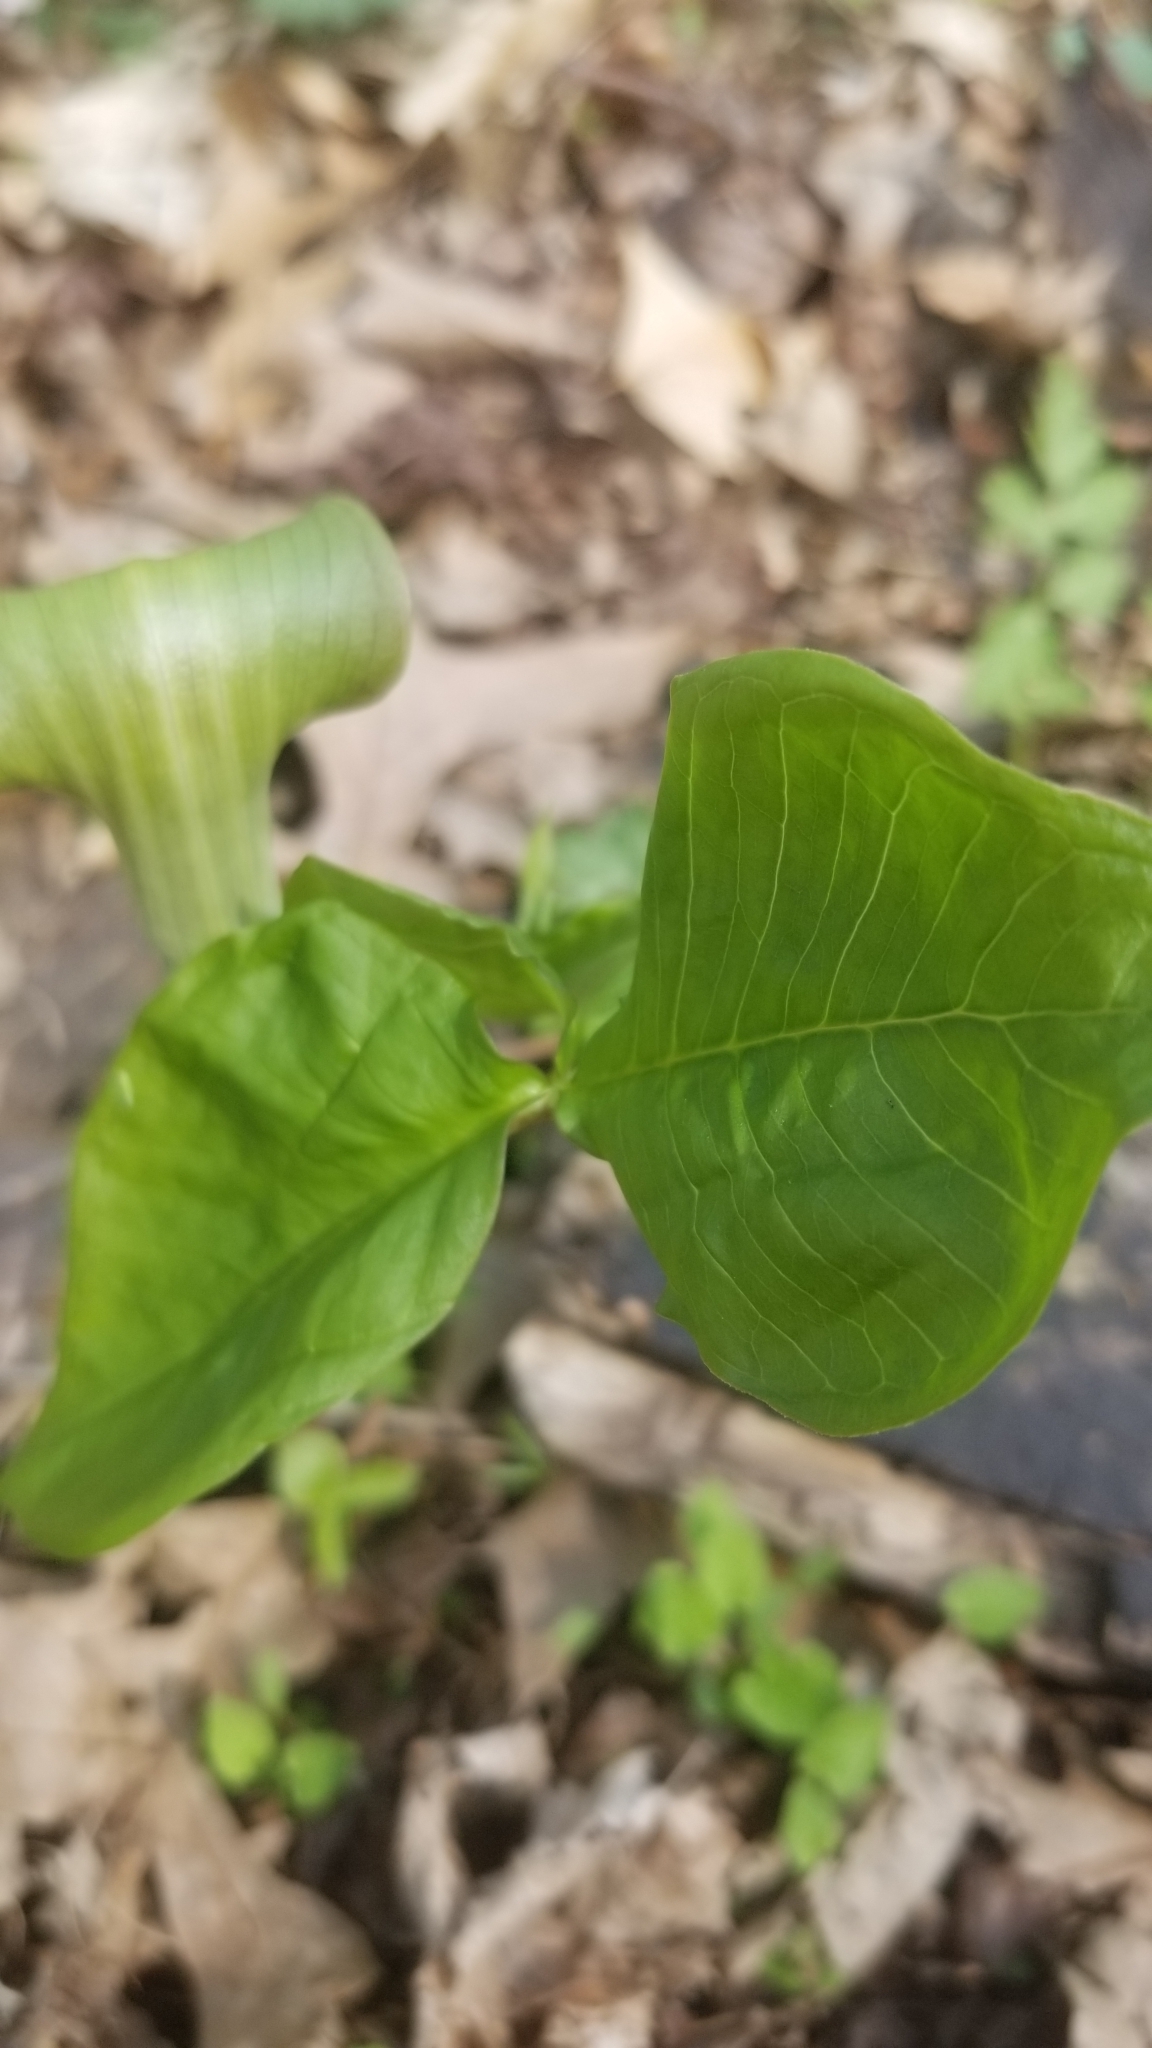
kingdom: Plantae
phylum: Tracheophyta
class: Liliopsida
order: Alismatales
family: Araceae
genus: Arisaema
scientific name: Arisaema triphyllum
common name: Jack-in-the-pulpit
